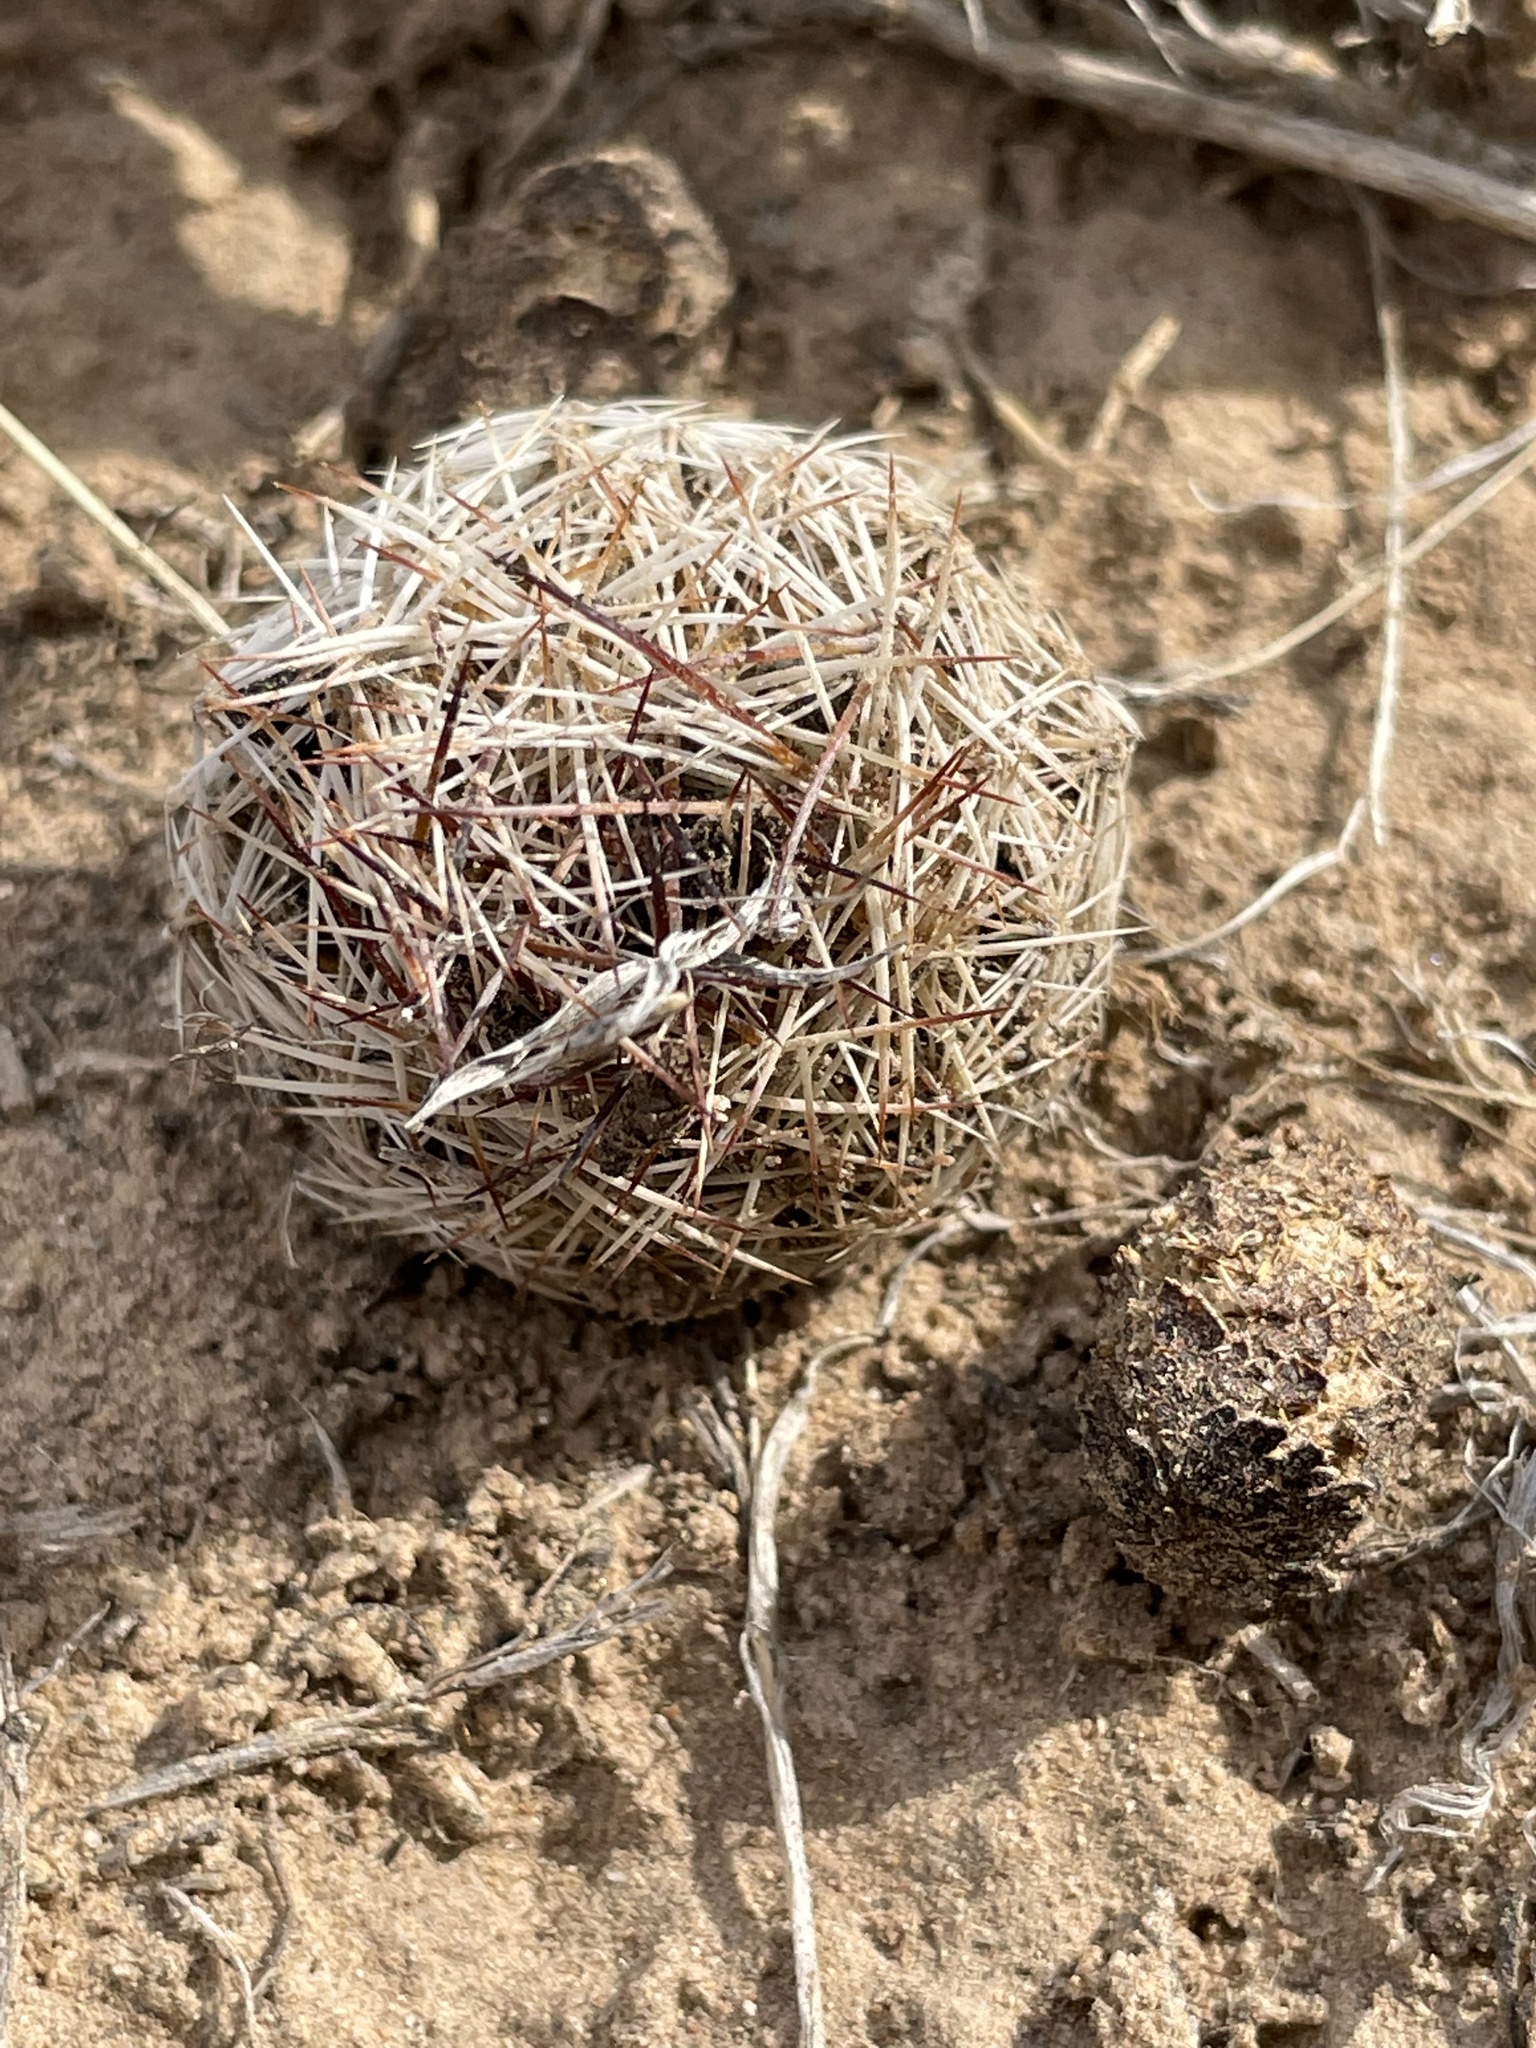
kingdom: Plantae
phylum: Tracheophyta
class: Magnoliopsida
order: Caryophyllales
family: Cactaceae
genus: Pelecyphora
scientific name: Pelecyphora vivipara
